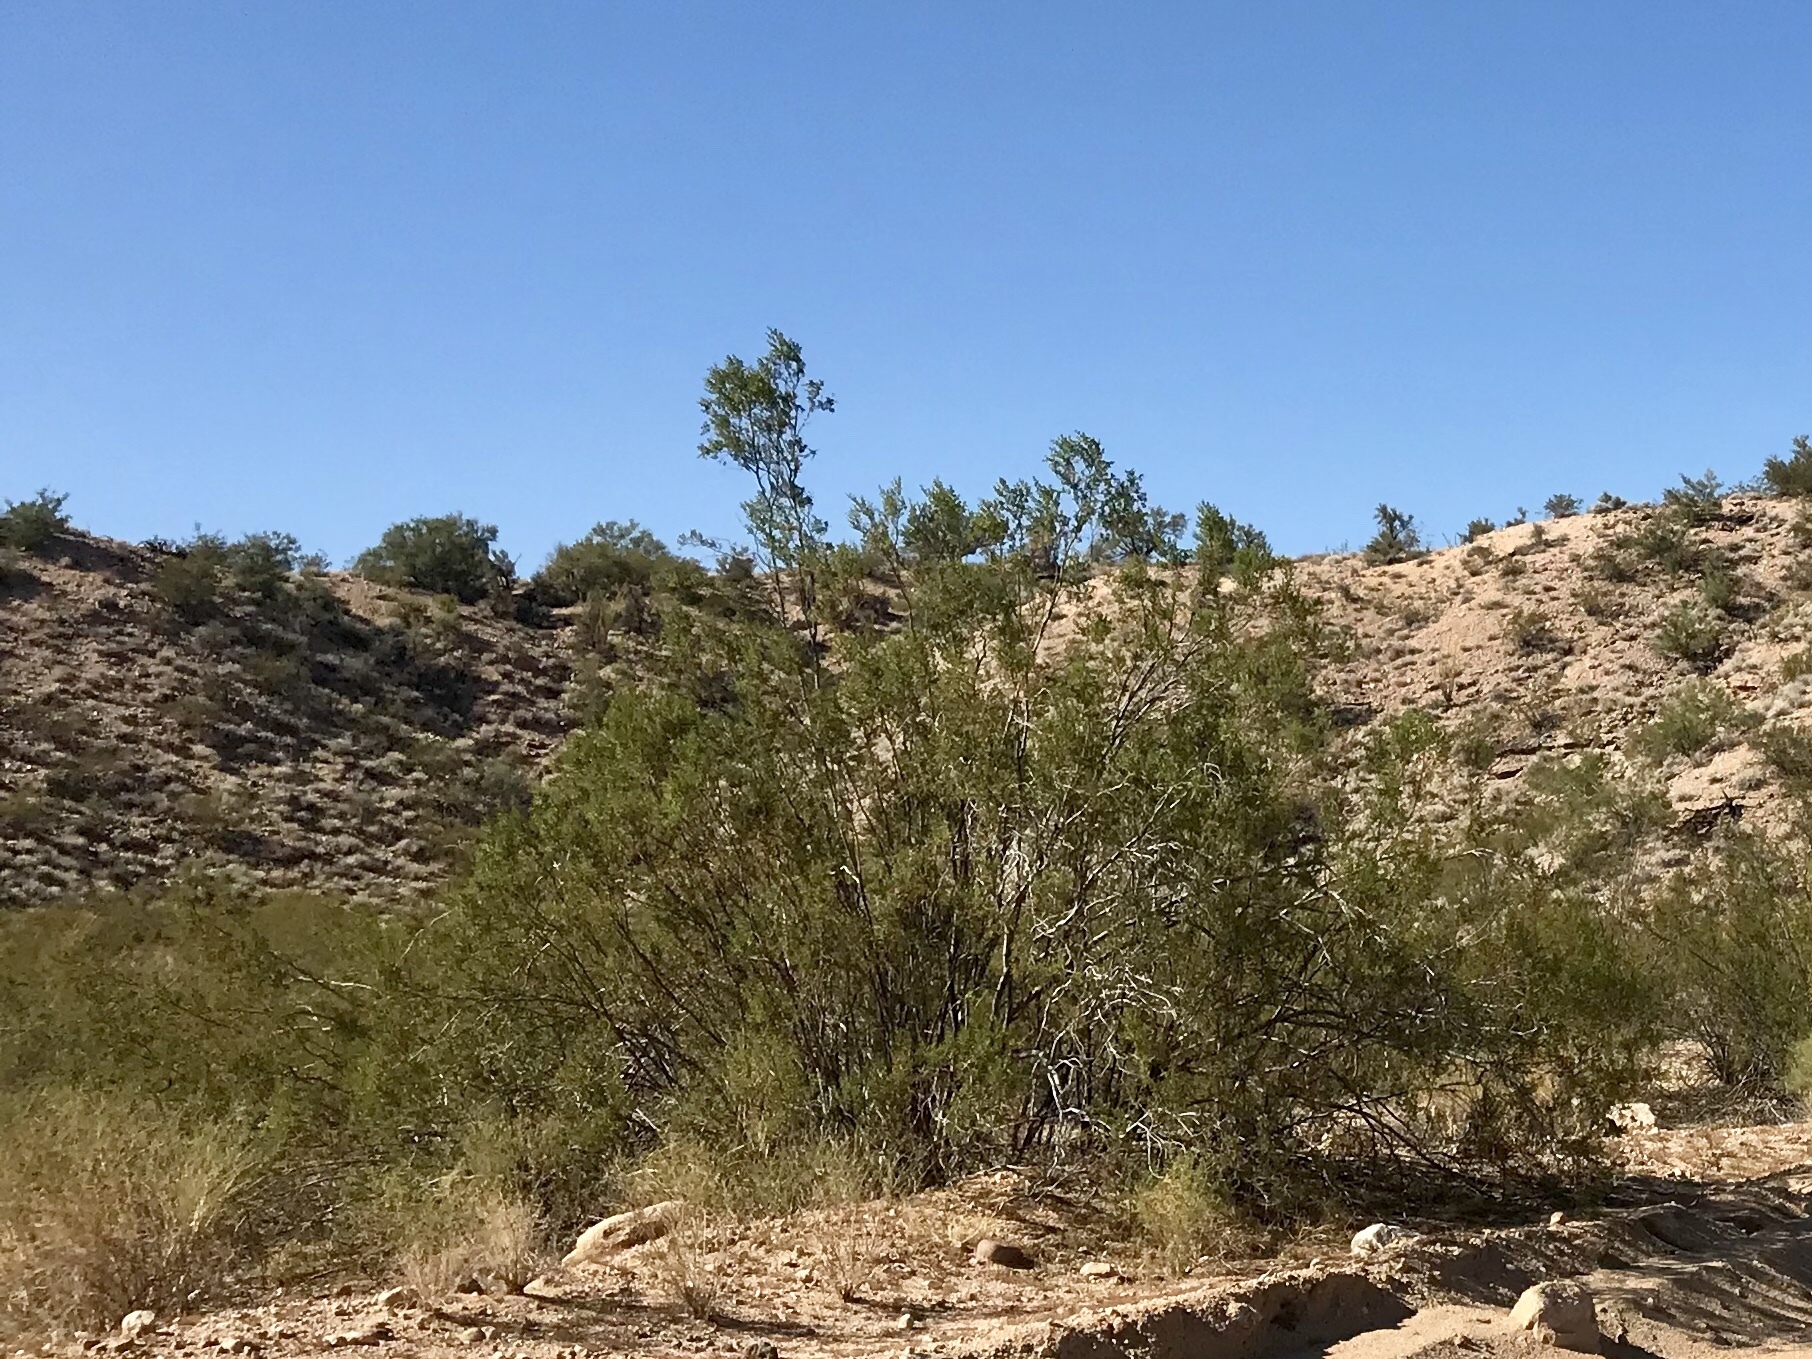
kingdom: Plantae
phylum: Tracheophyta
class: Magnoliopsida
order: Zygophyllales
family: Zygophyllaceae
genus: Larrea
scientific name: Larrea tridentata
